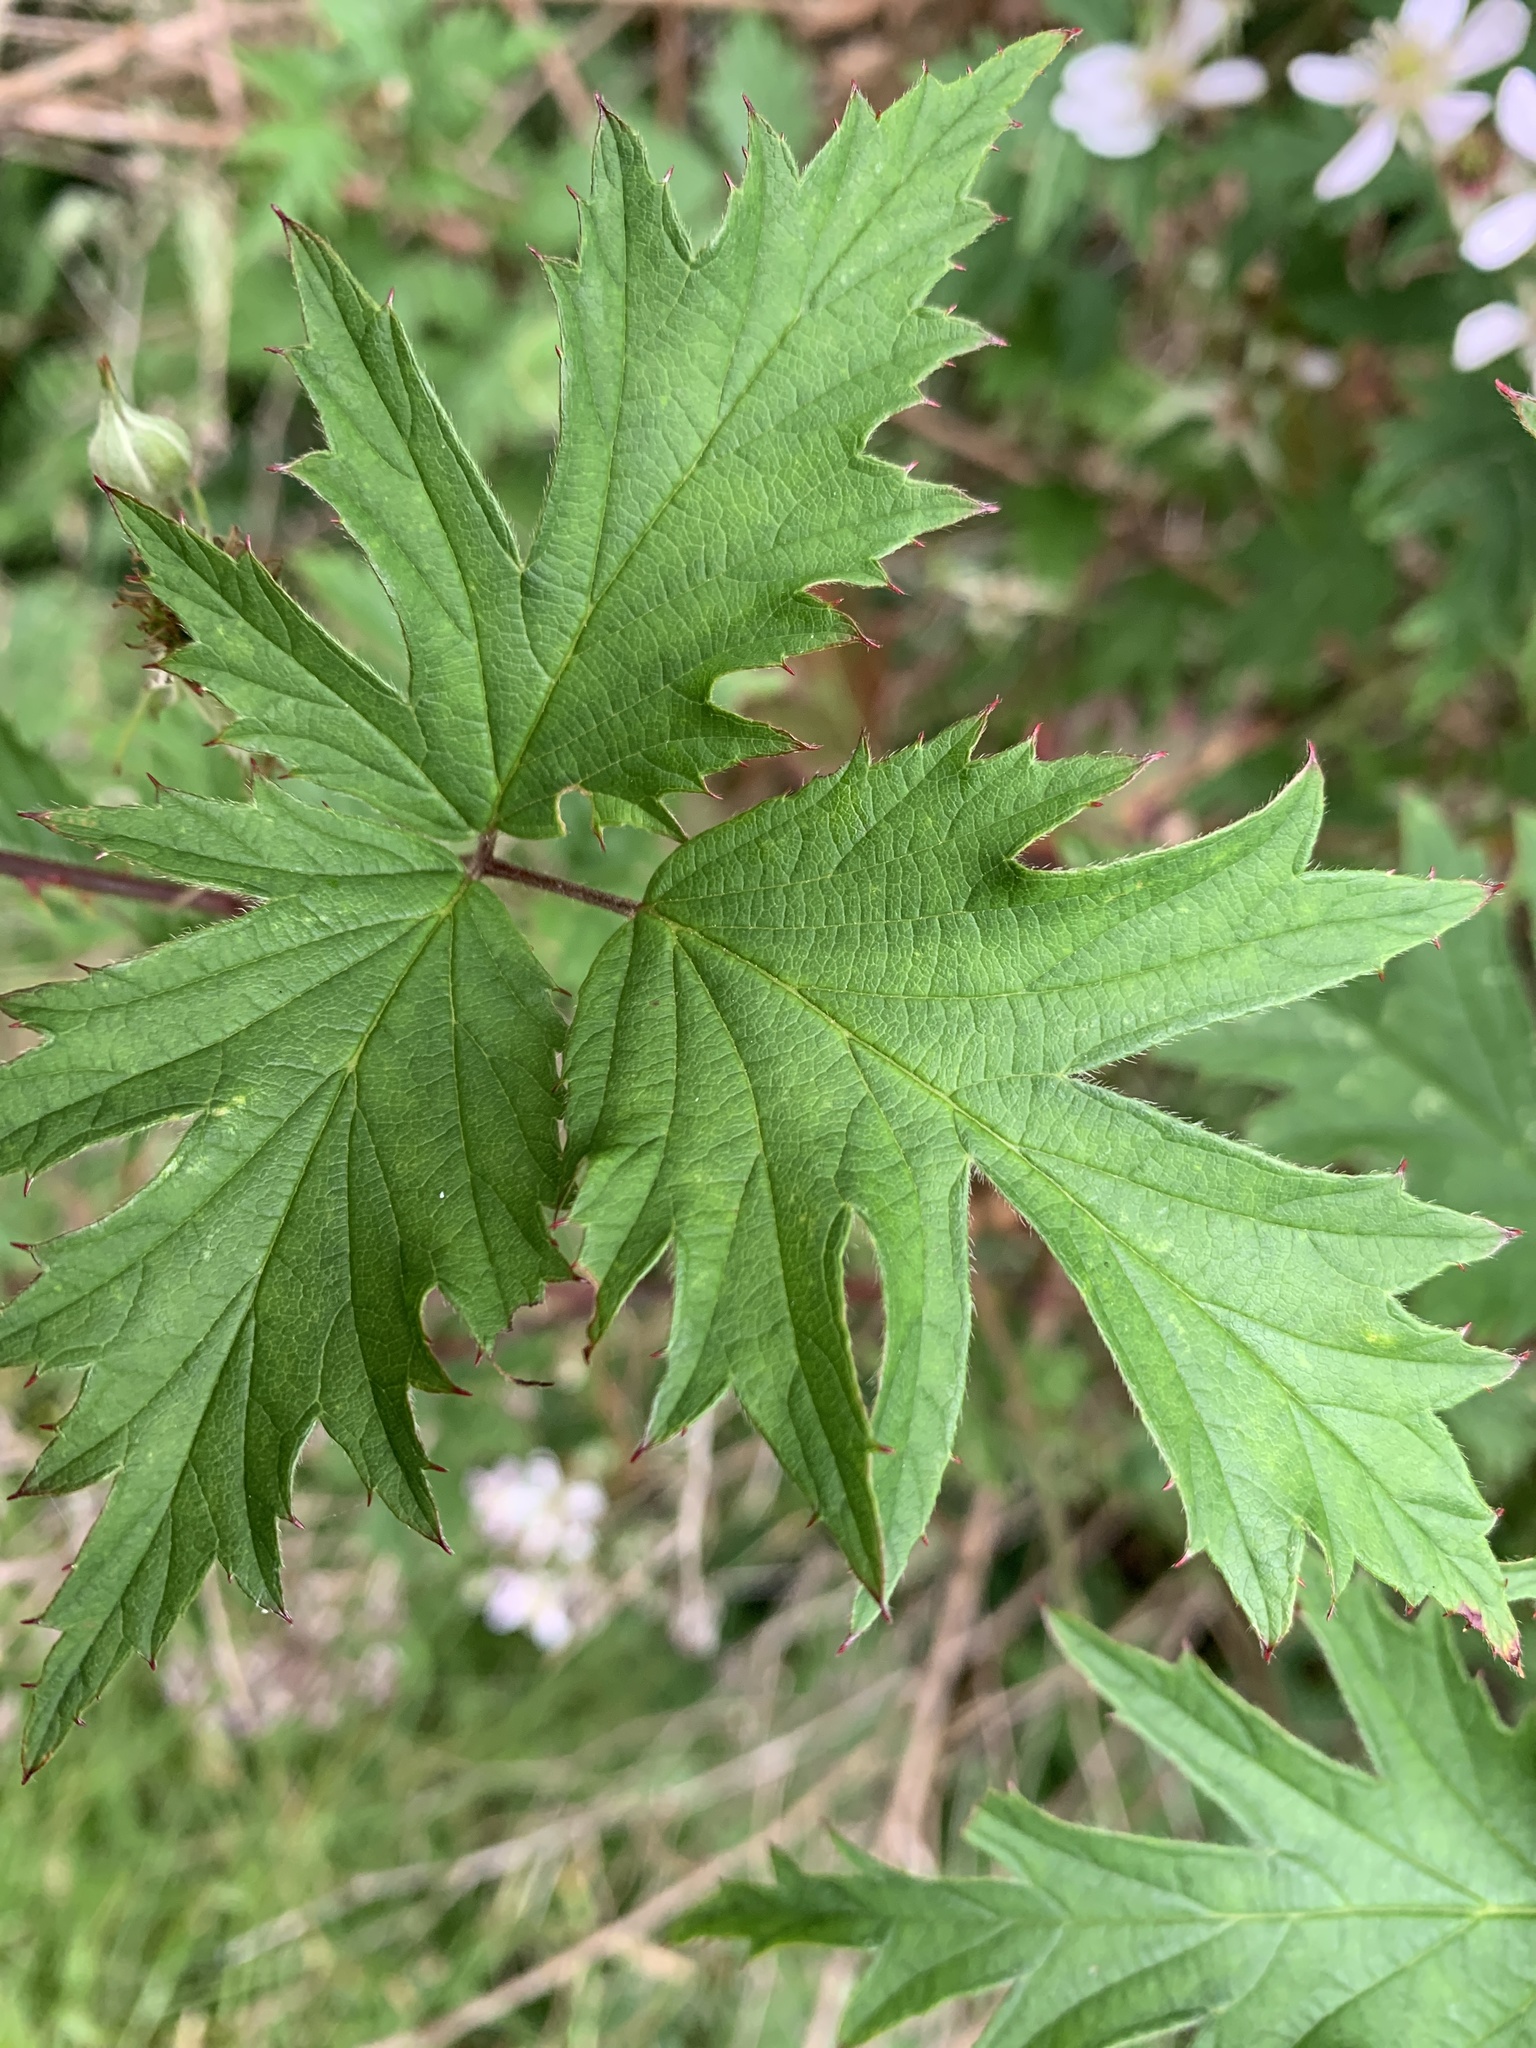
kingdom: Plantae
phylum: Tracheophyta
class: Magnoliopsida
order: Rosales
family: Rosaceae
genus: Rubus
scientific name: Rubus laciniatus
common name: Evergreen blackberry
